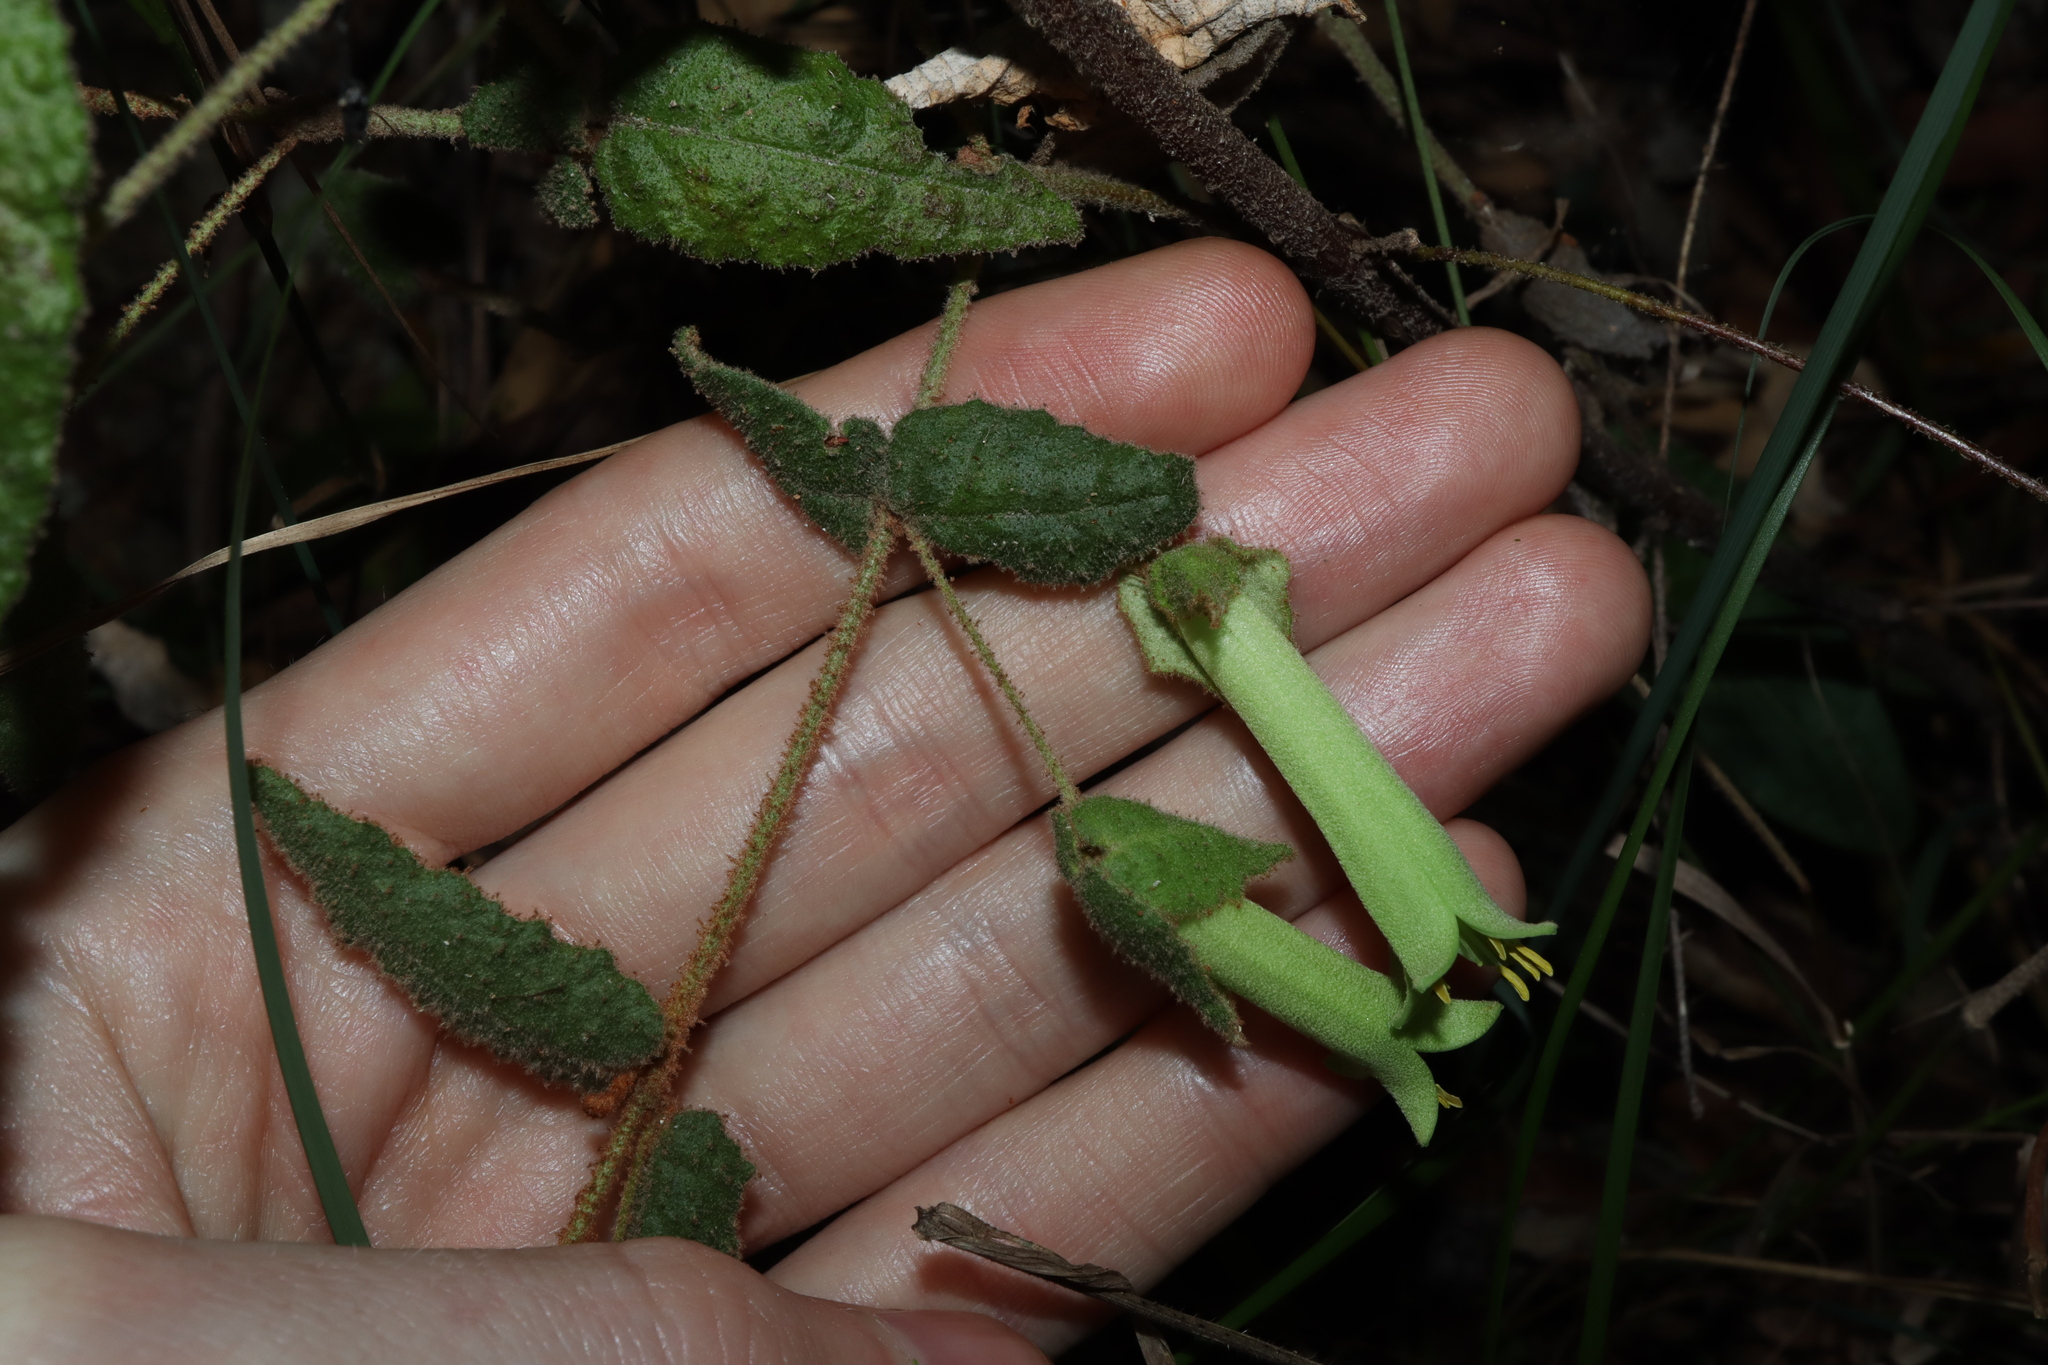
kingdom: Plantae
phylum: Tracheophyta
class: Magnoliopsida
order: Sapindales
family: Rutaceae
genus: Correa
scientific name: Correa reflexa
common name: Common correa
